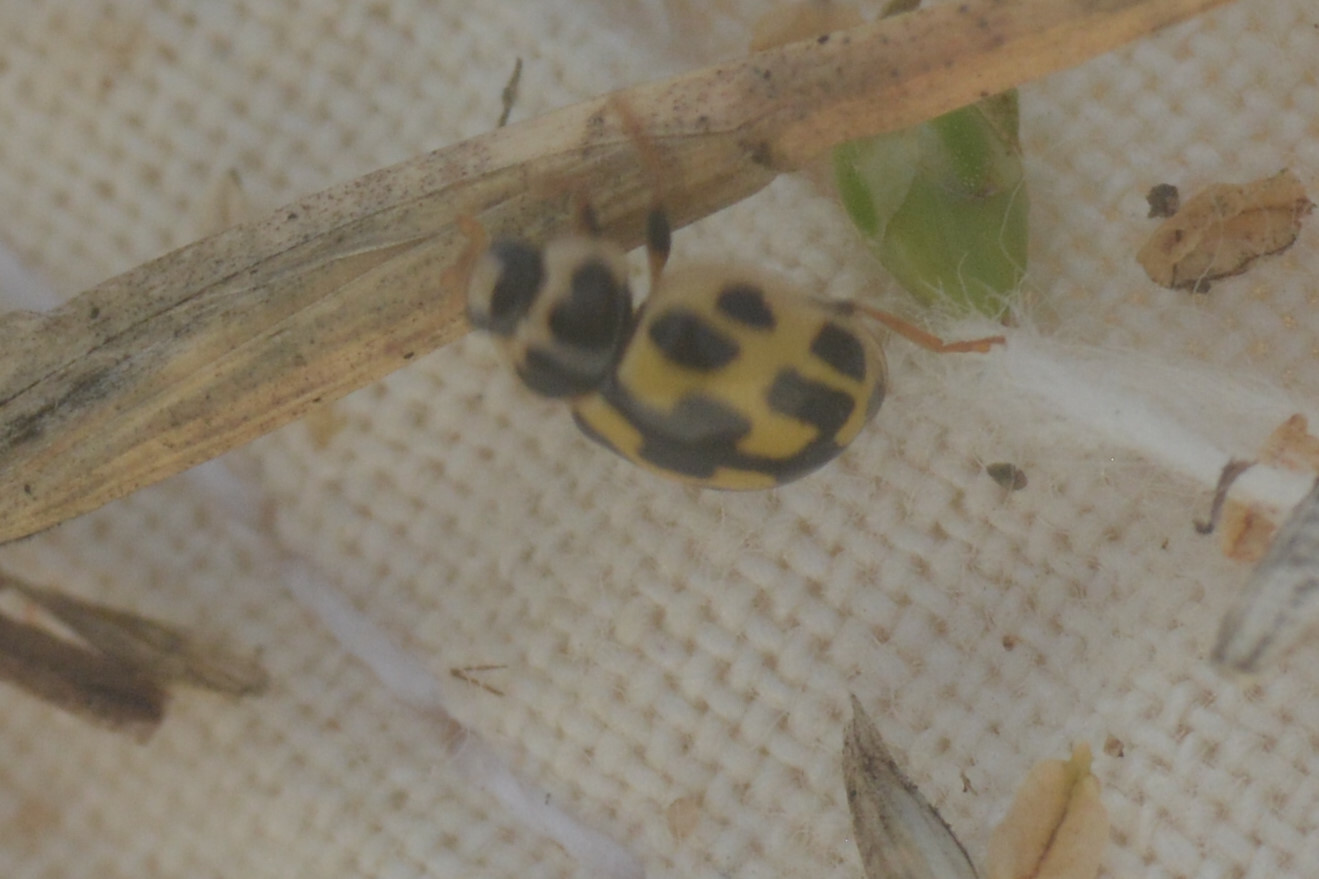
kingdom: Animalia
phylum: Arthropoda
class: Insecta
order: Coleoptera
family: Coccinellidae
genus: Propylaea
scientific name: Propylaea quatuordecimpunctata
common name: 14-spotted ladybird beetle
